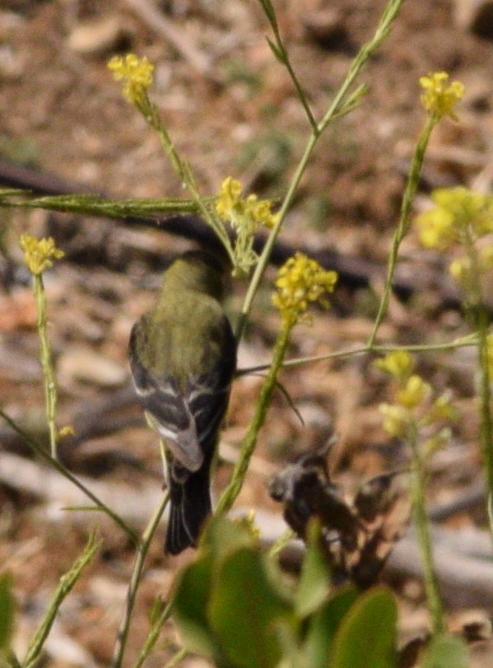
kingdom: Animalia
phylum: Chordata
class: Aves
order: Passeriformes
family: Fringillidae
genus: Spinus
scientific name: Spinus psaltria
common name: Lesser goldfinch
